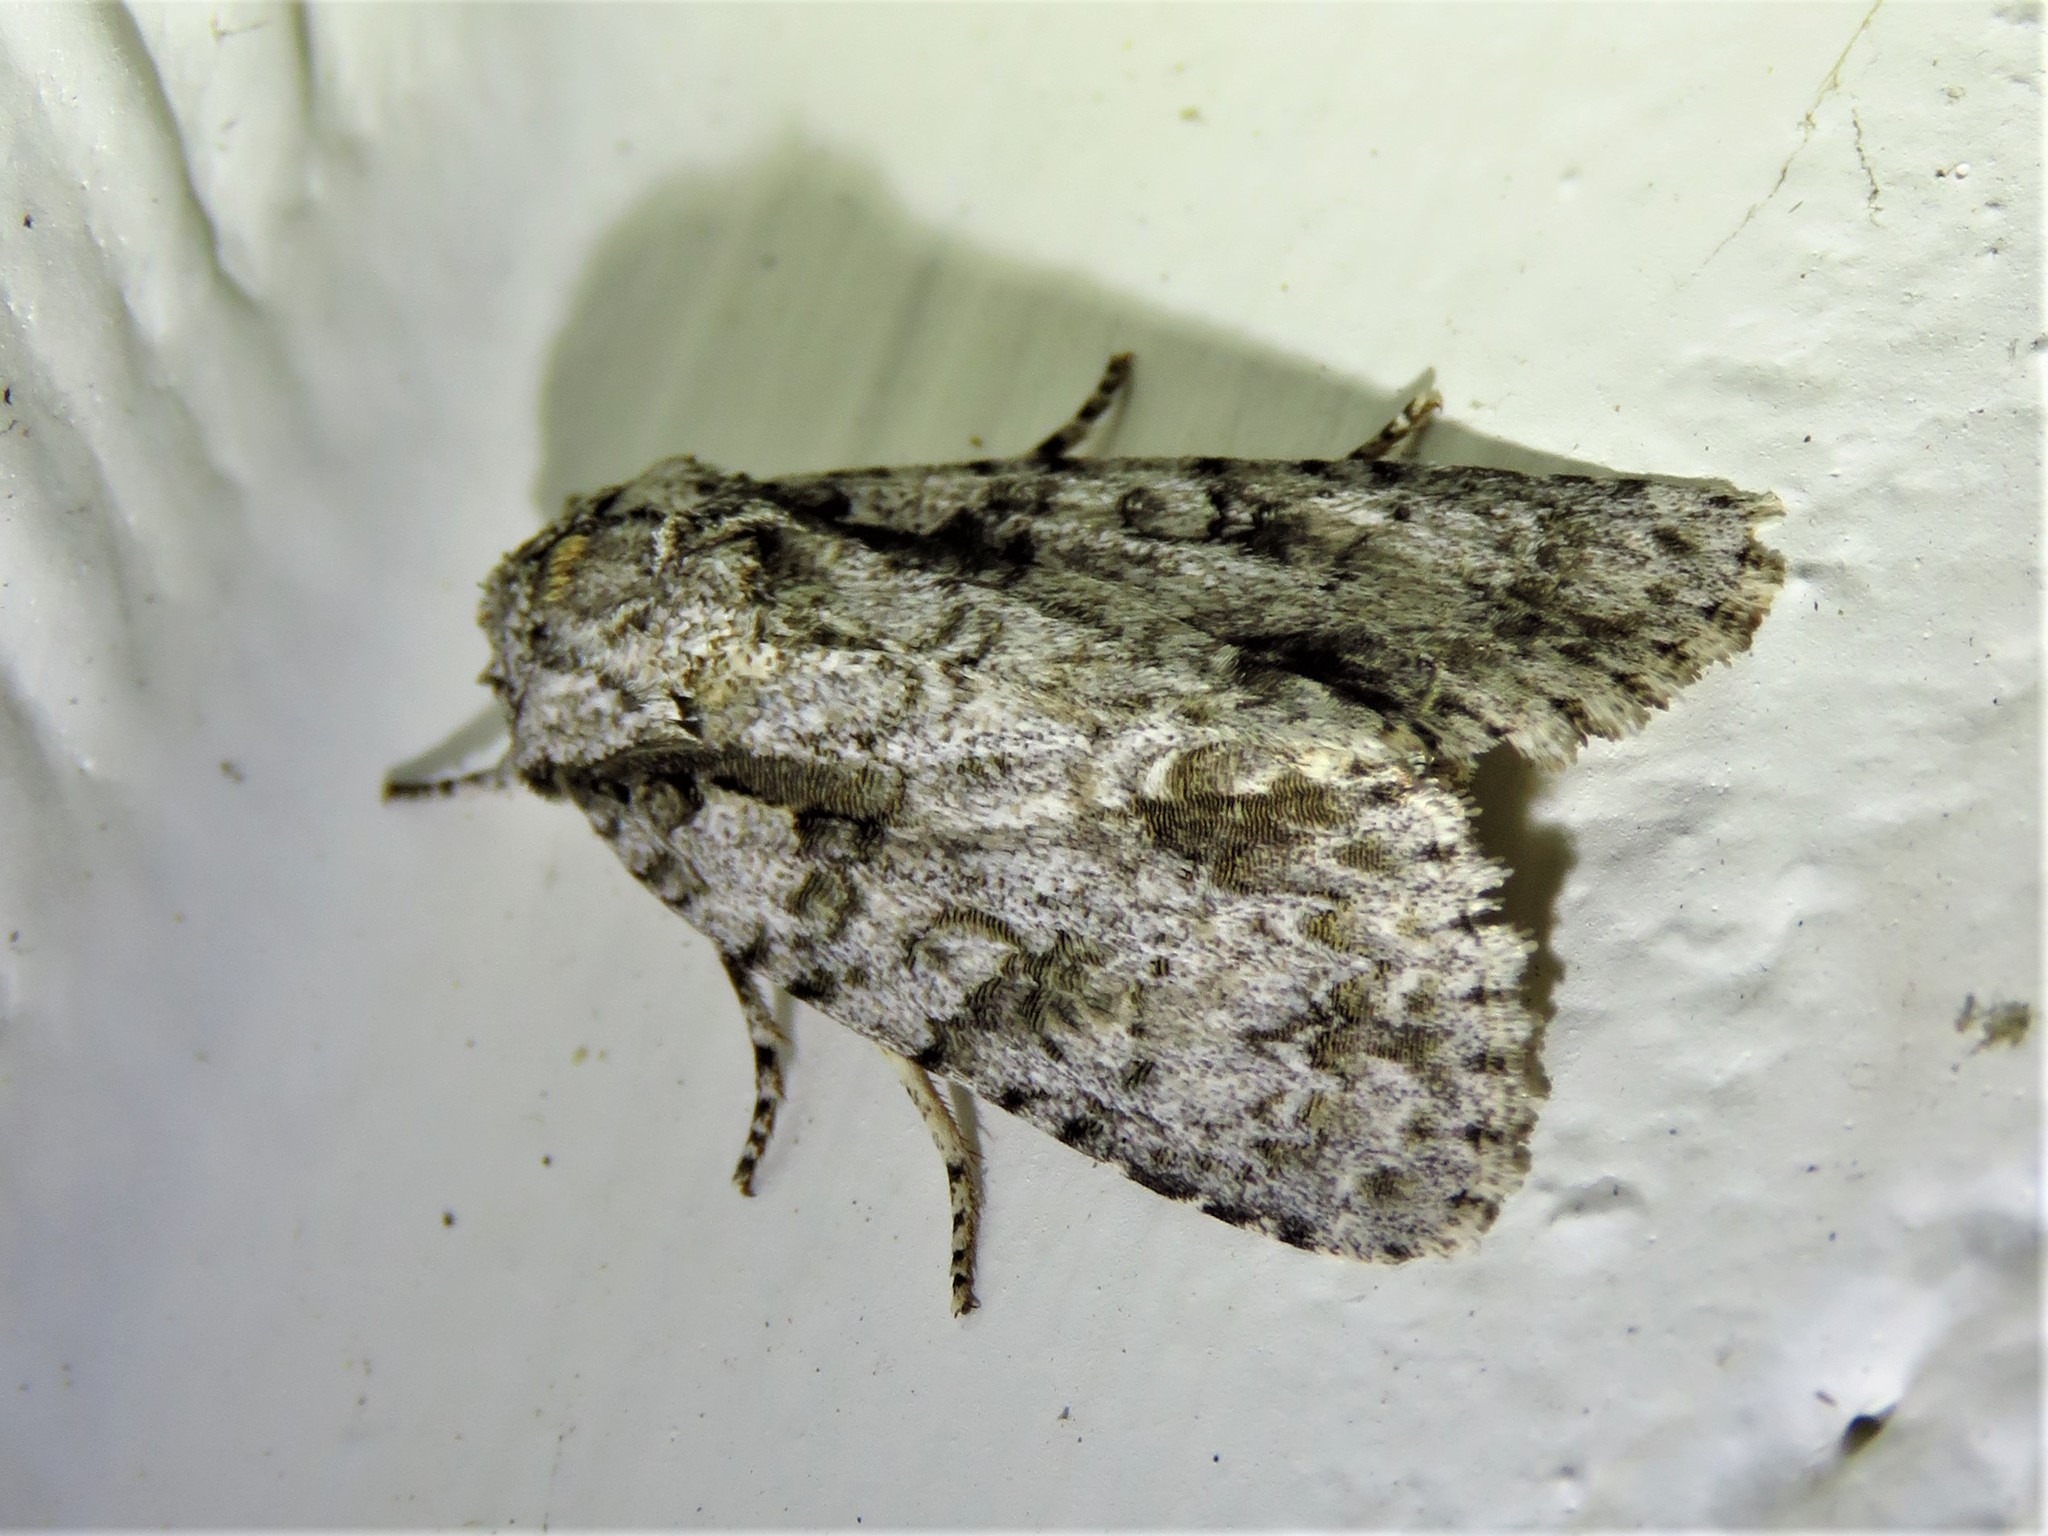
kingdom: Animalia
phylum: Arthropoda
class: Insecta
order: Lepidoptera
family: Noctuidae
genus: Acronicta
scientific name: Acronicta clarescens
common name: Clear dagger
